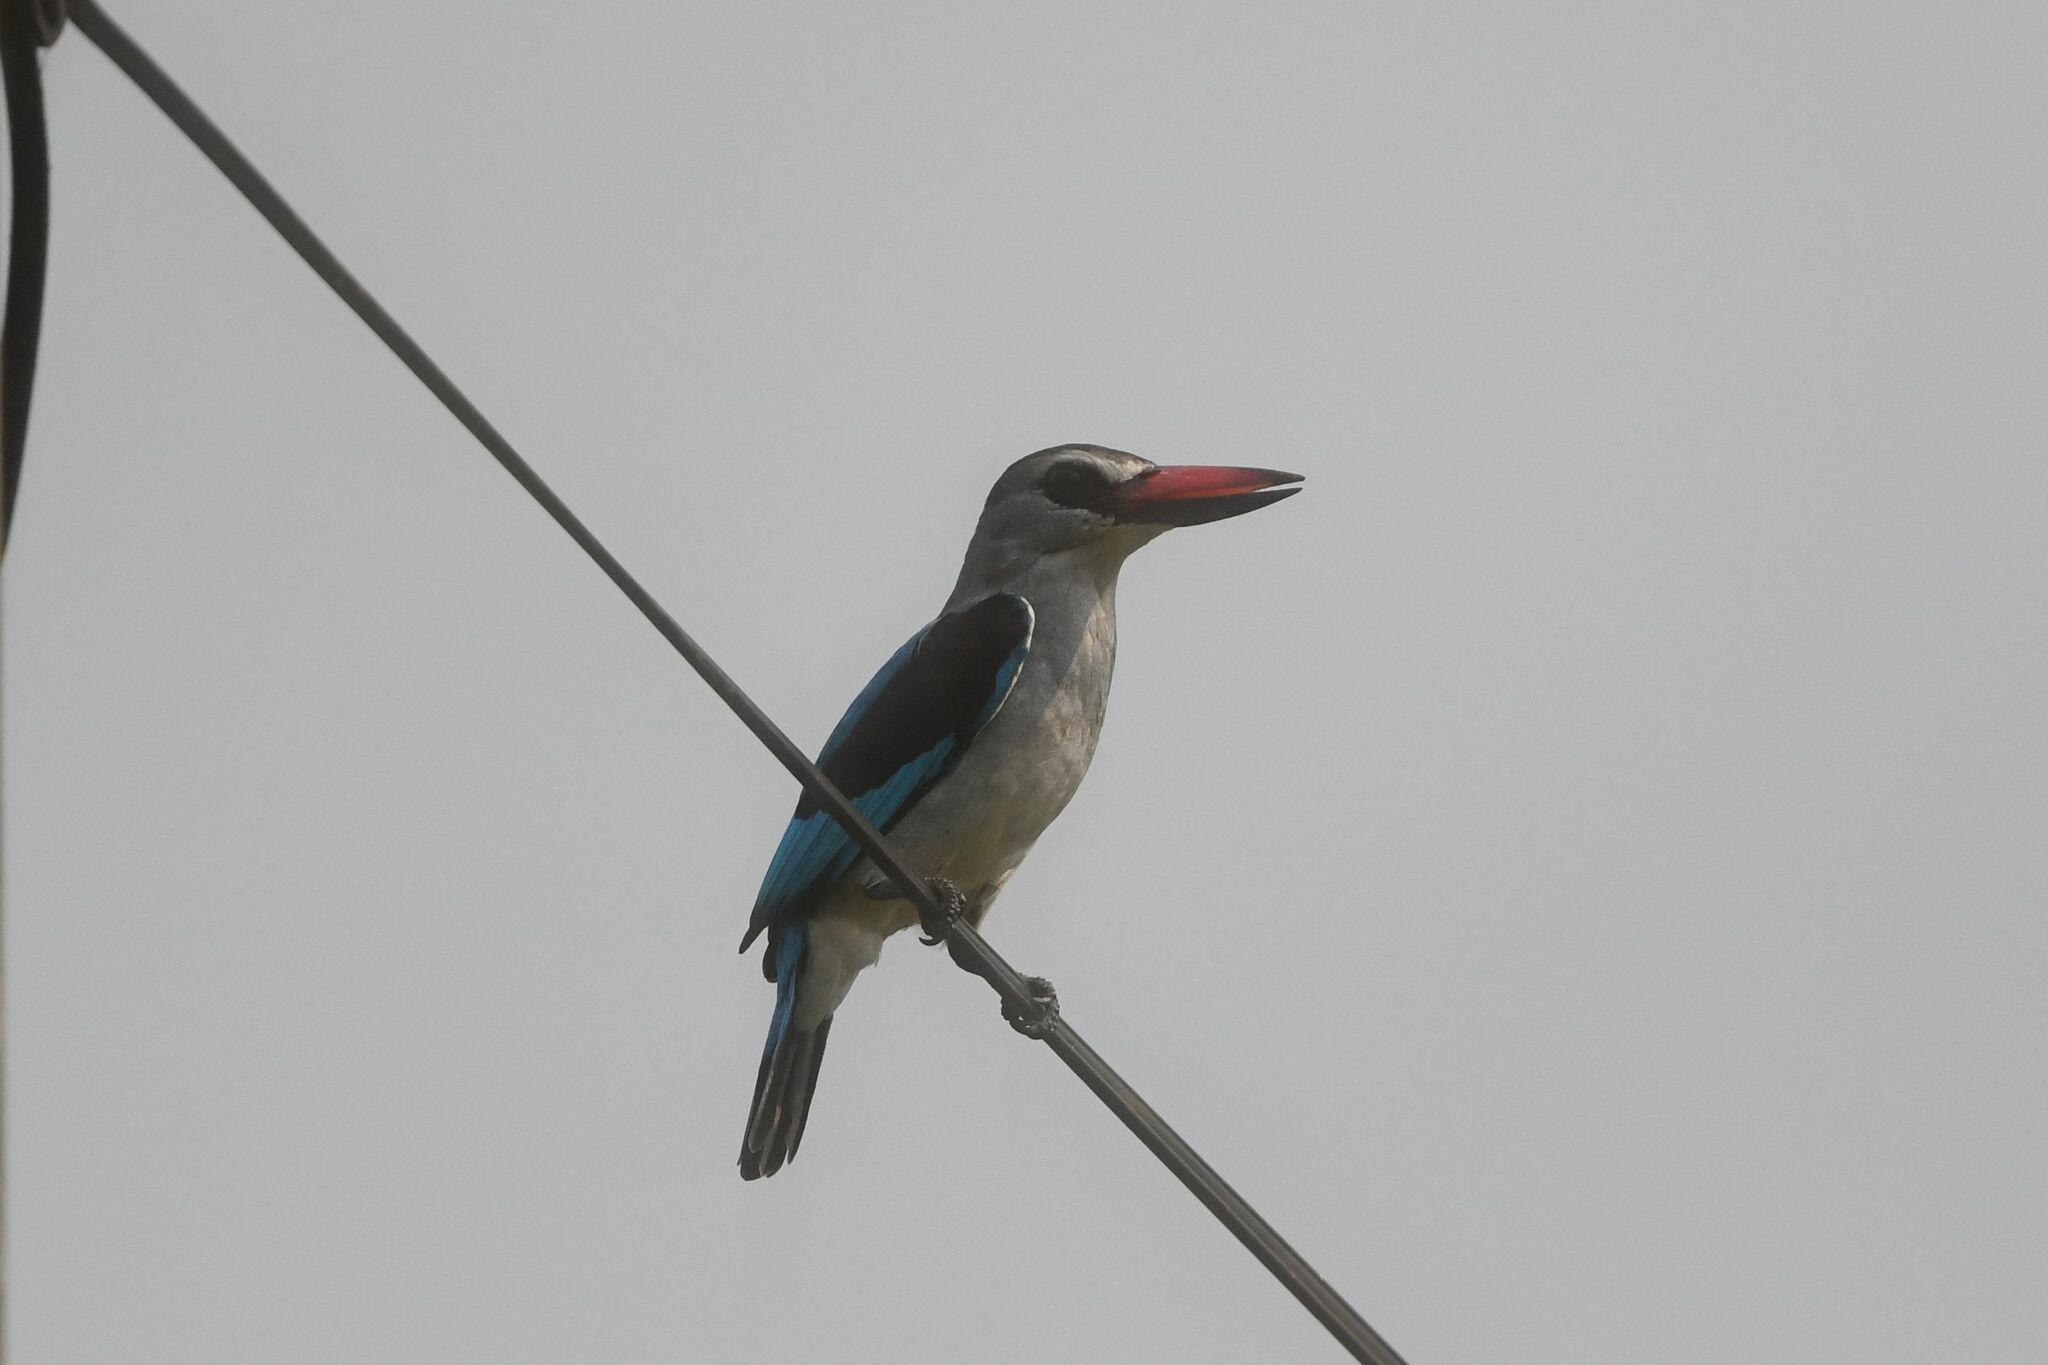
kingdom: Animalia
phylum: Chordata
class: Aves
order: Coraciiformes
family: Alcedinidae
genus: Halcyon
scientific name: Halcyon senegalensis
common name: Woodland kingfisher
